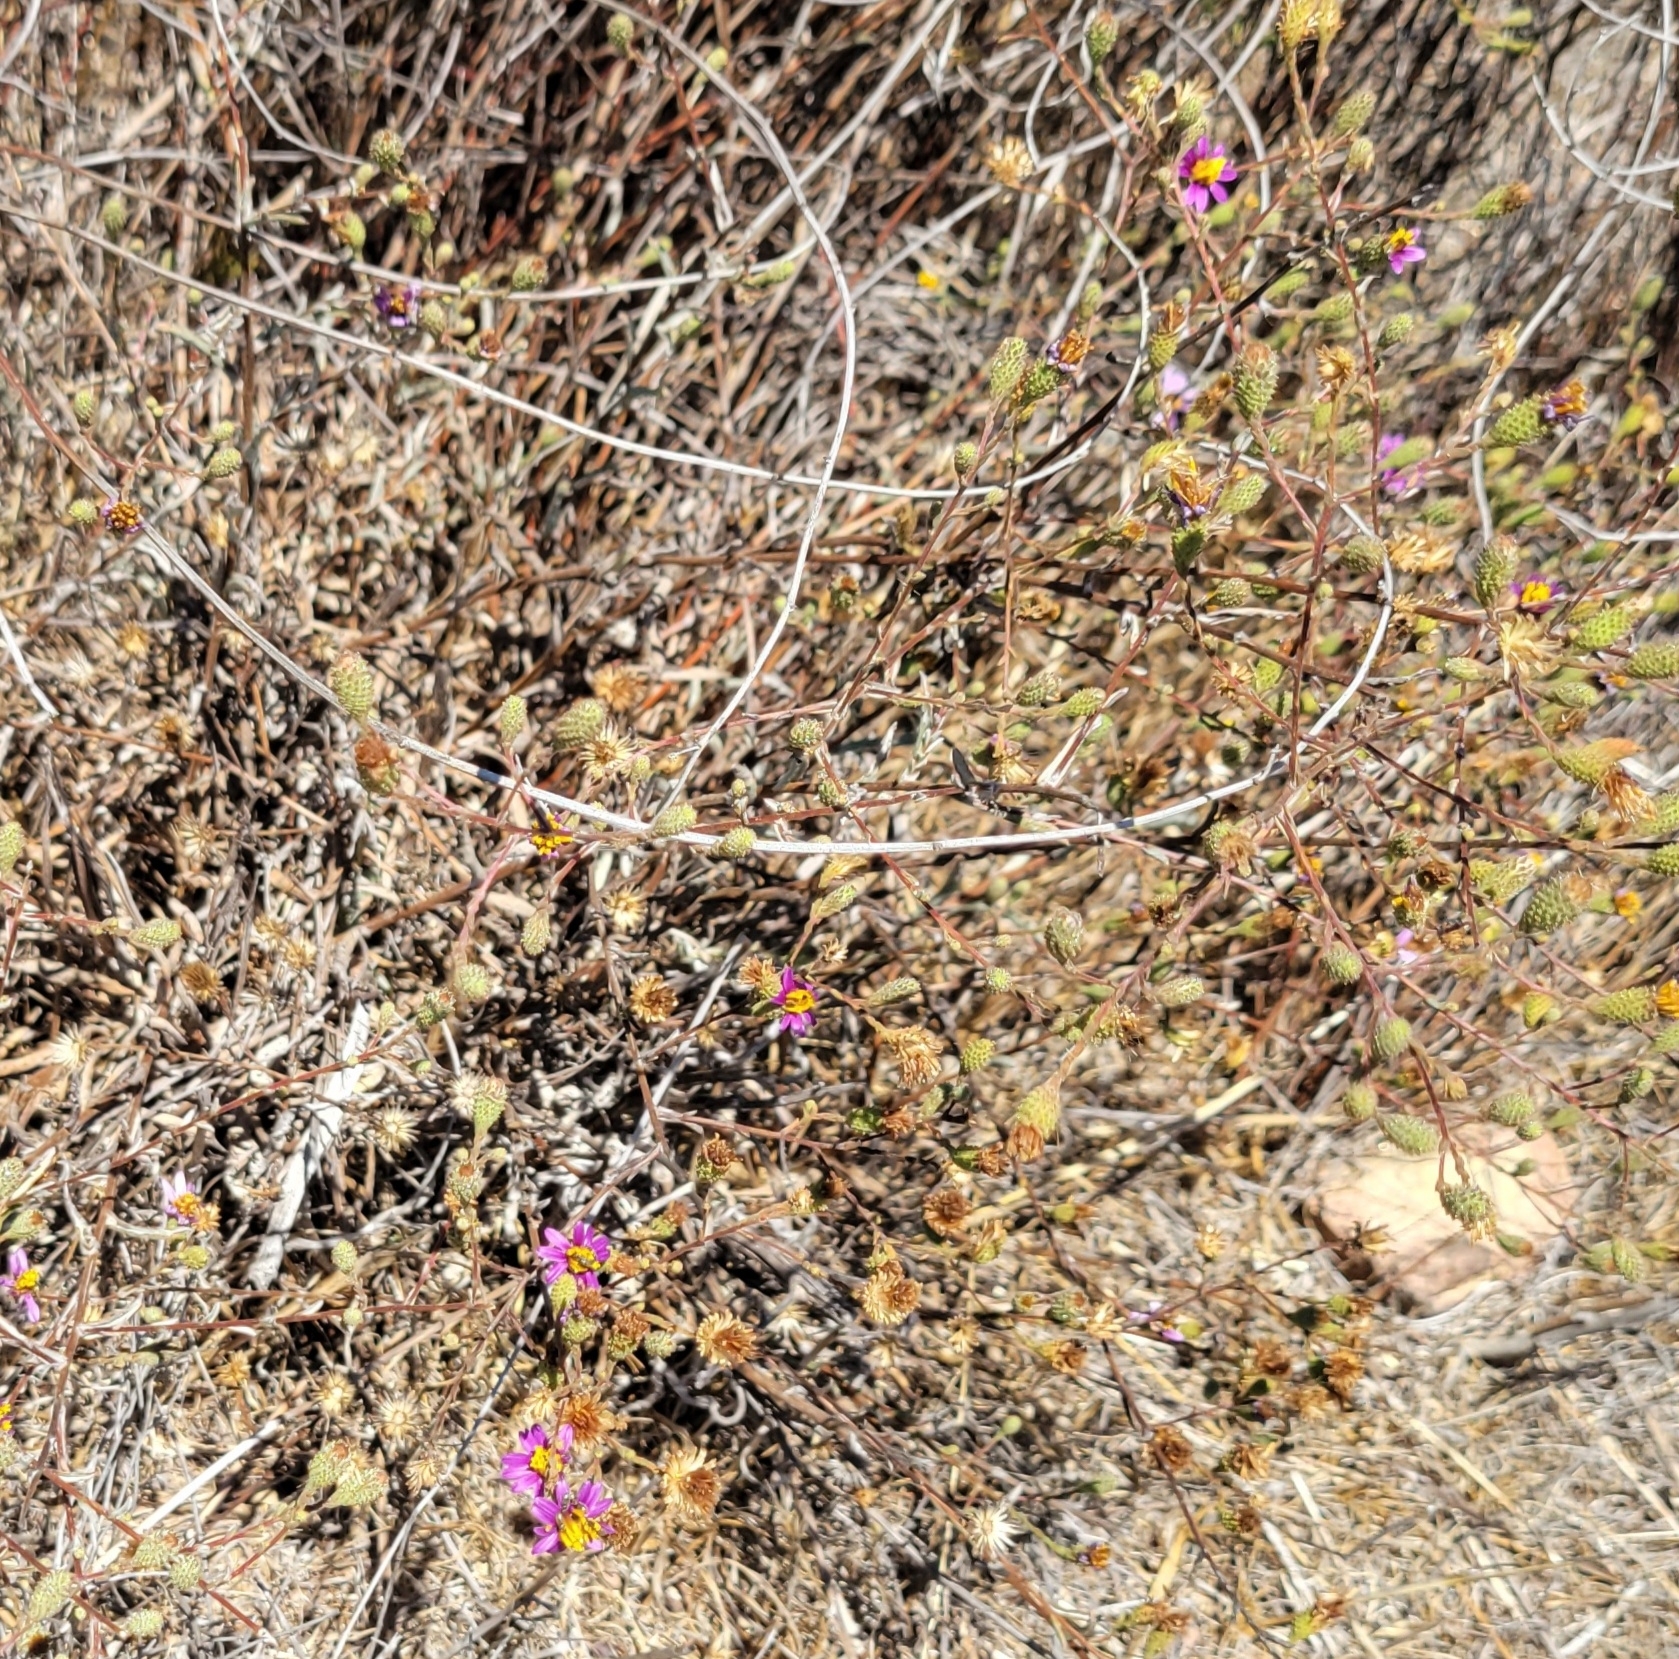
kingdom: Plantae
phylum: Tracheophyta
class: Magnoliopsida
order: Asterales
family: Asteraceae
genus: Corethrogyne
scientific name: Corethrogyne filaginifolia
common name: Sand-aster
